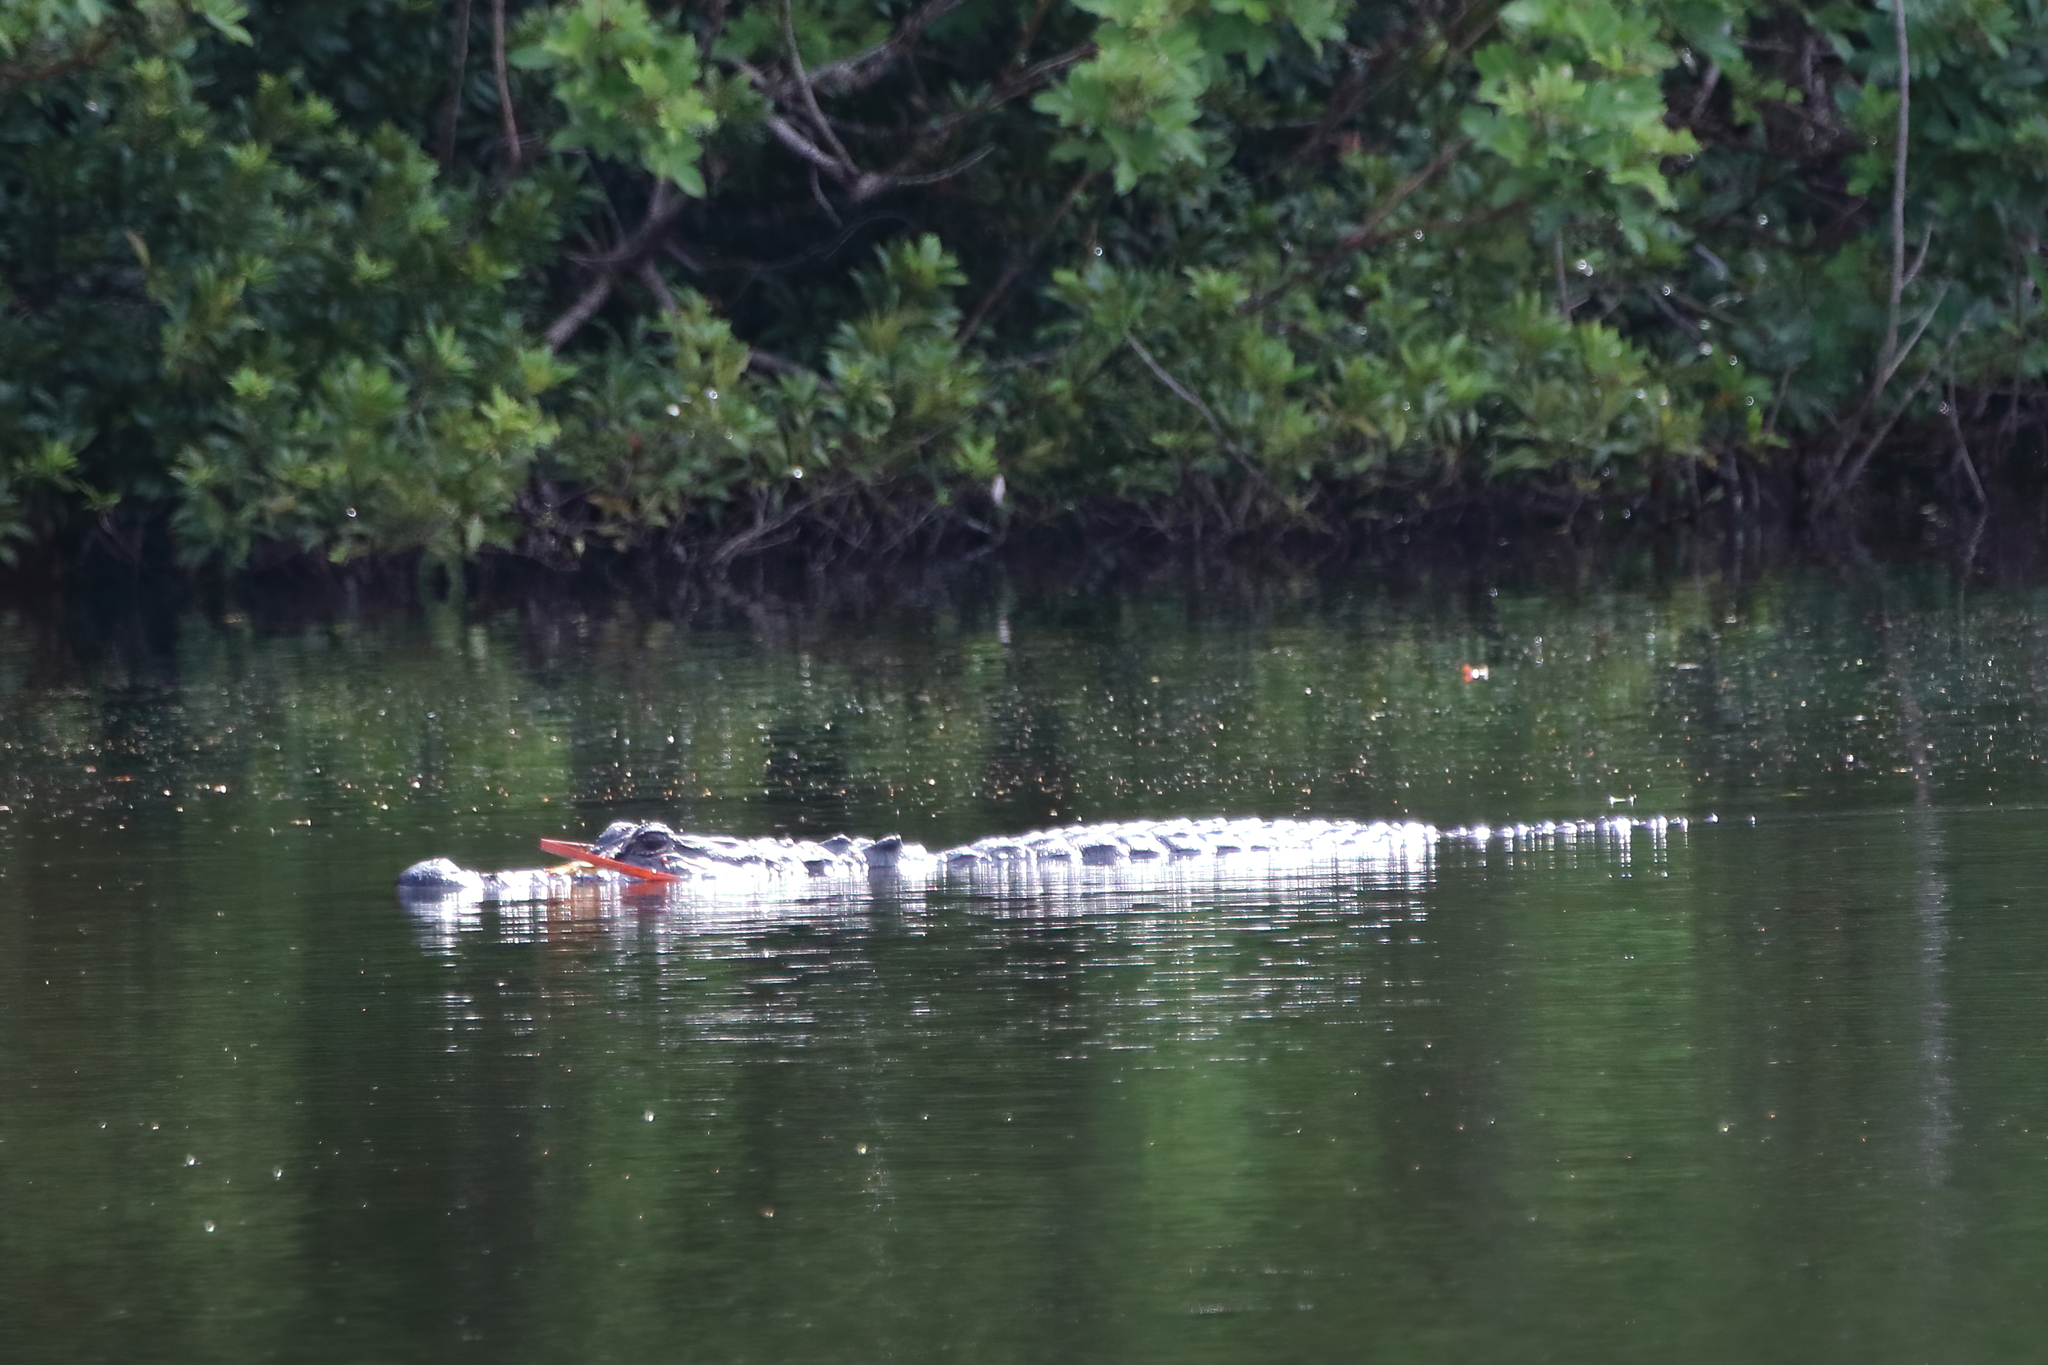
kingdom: Animalia
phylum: Chordata
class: Crocodylia
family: Alligatoridae
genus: Alligator
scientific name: Alligator mississippiensis
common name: American alligator
